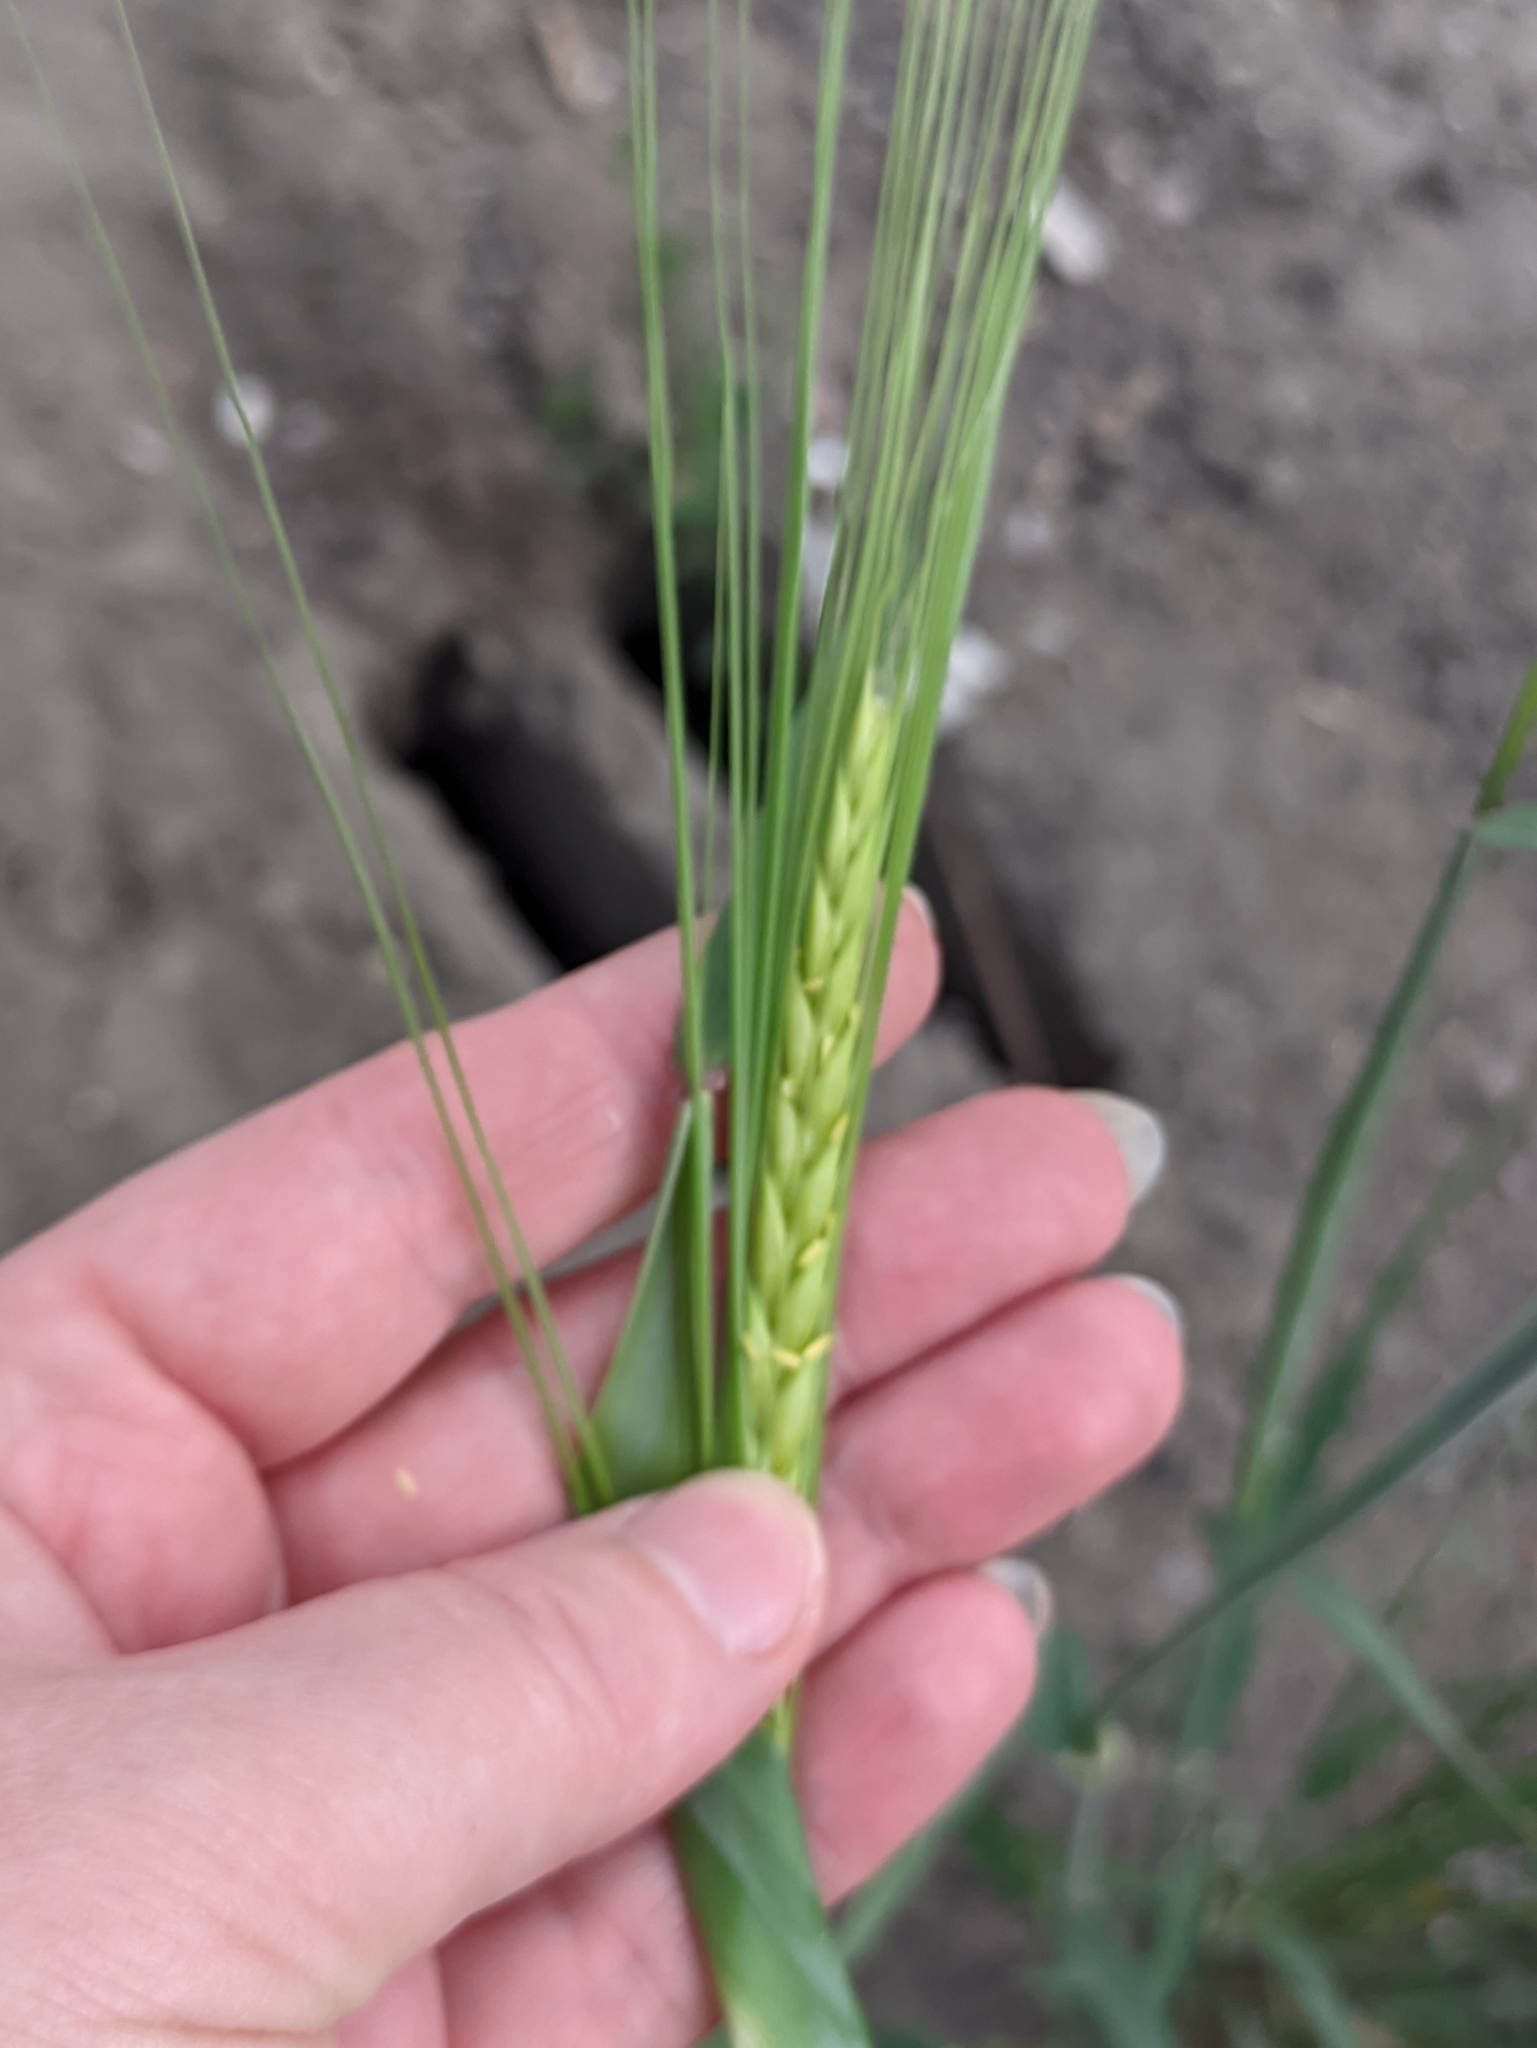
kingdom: Plantae
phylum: Tracheophyta
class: Liliopsida
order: Poales
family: Poaceae
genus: Hordeum
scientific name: Hordeum distichon
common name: Two-rowed barley
